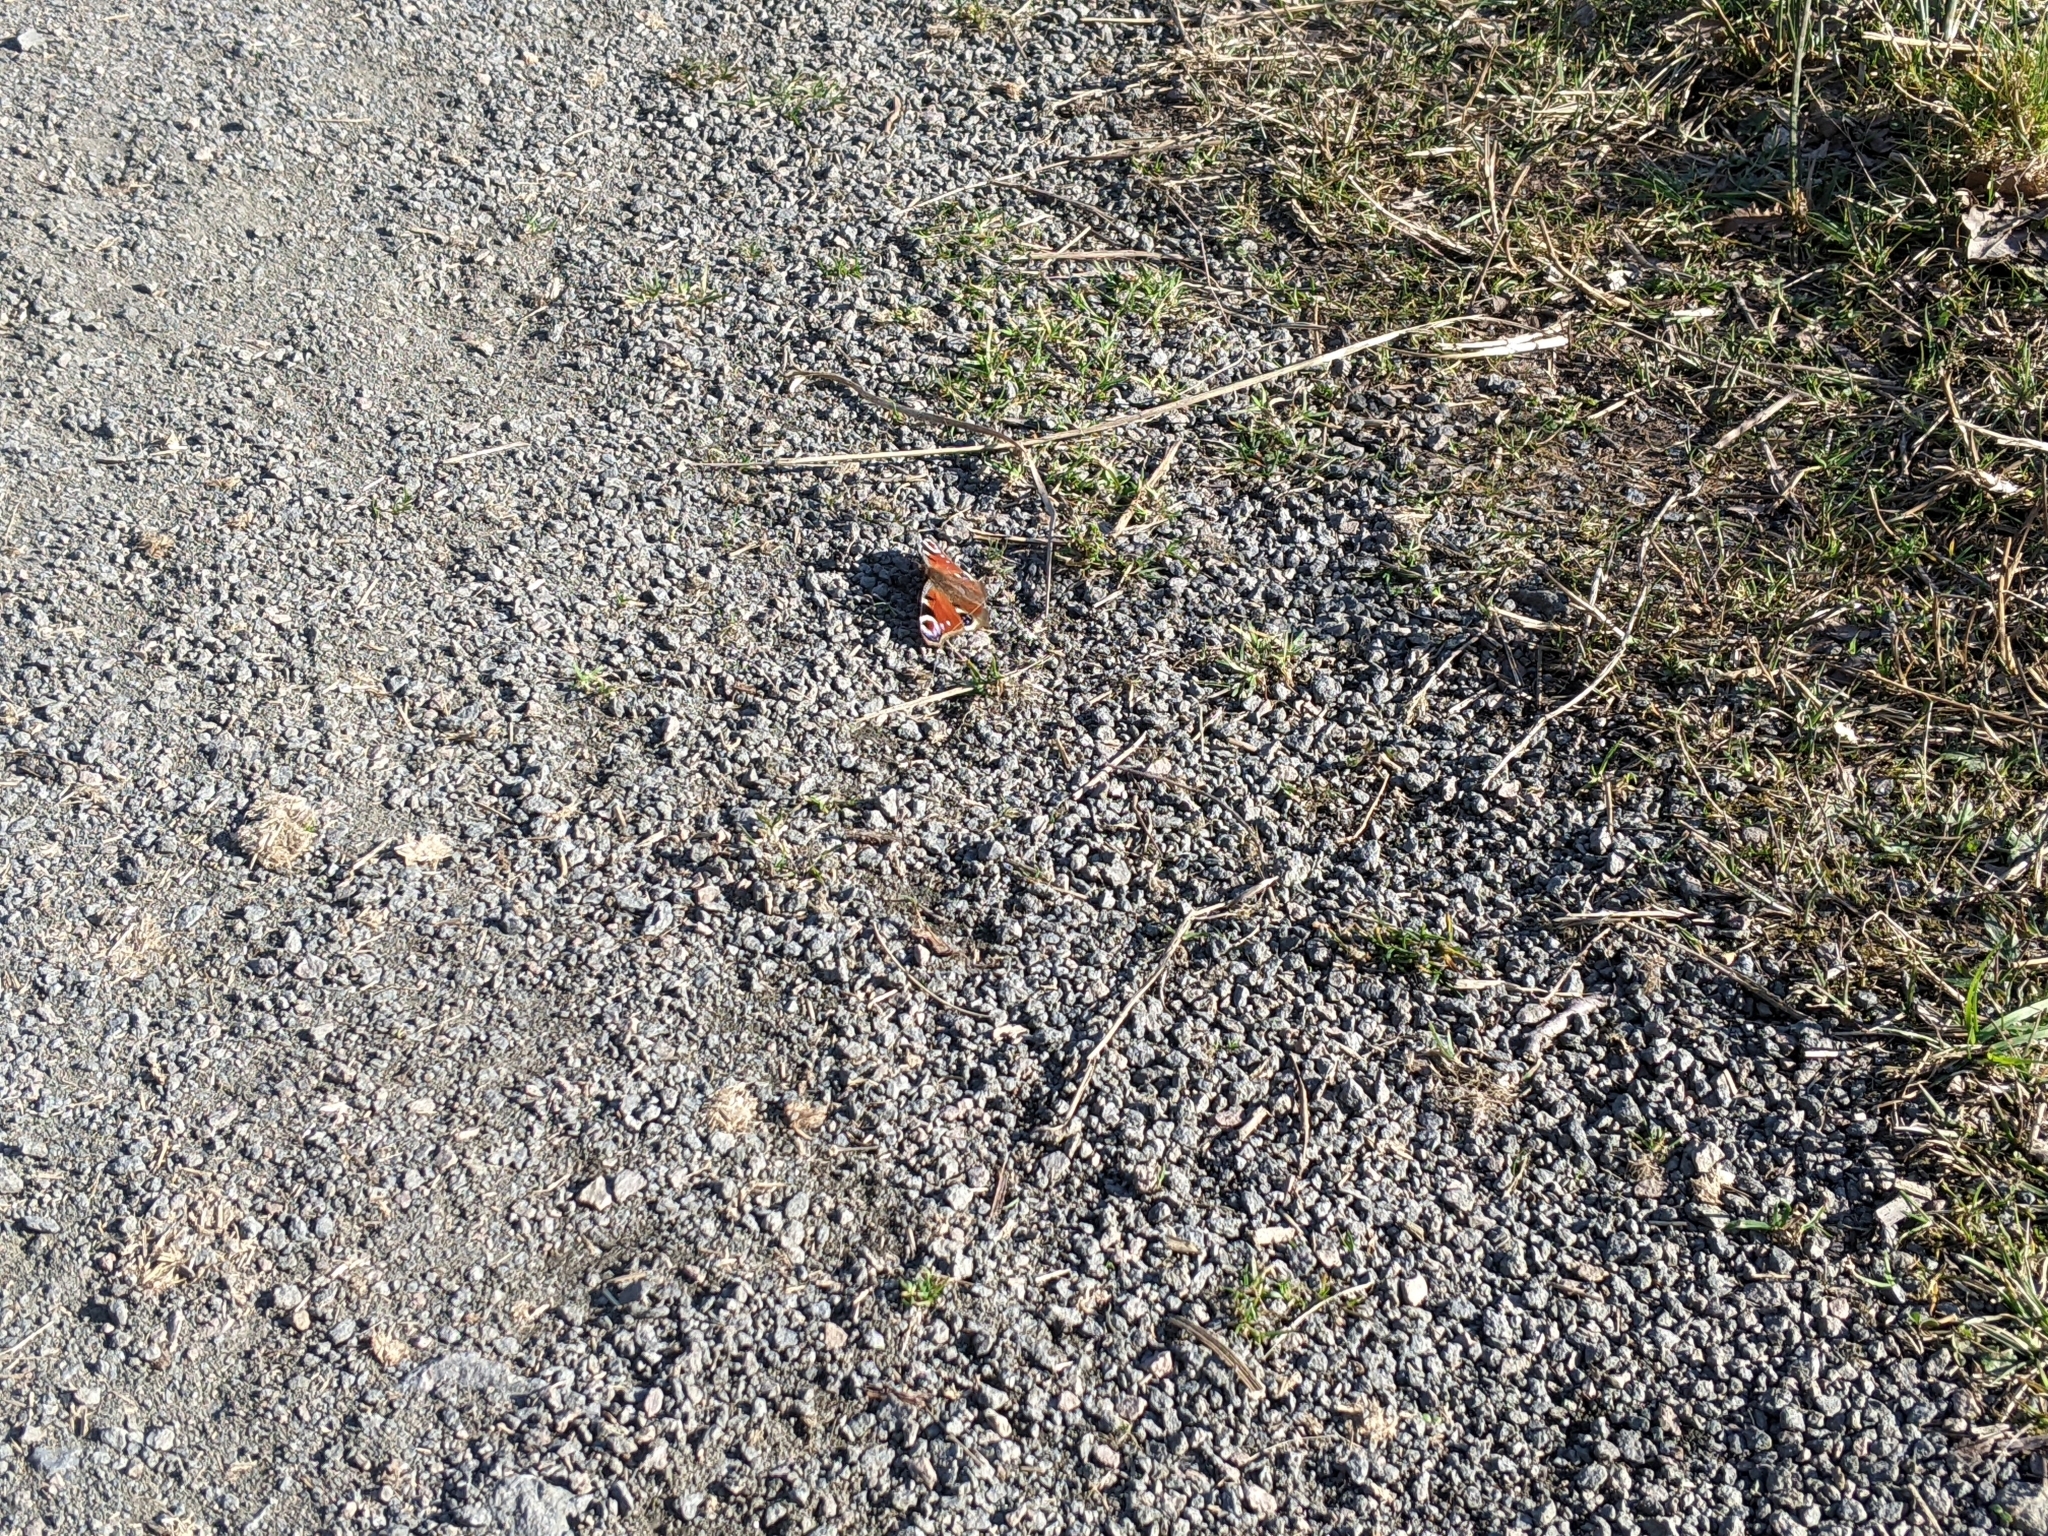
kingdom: Animalia
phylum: Arthropoda
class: Insecta
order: Lepidoptera
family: Nymphalidae
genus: Aglais
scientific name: Aglais io
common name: Peacock
